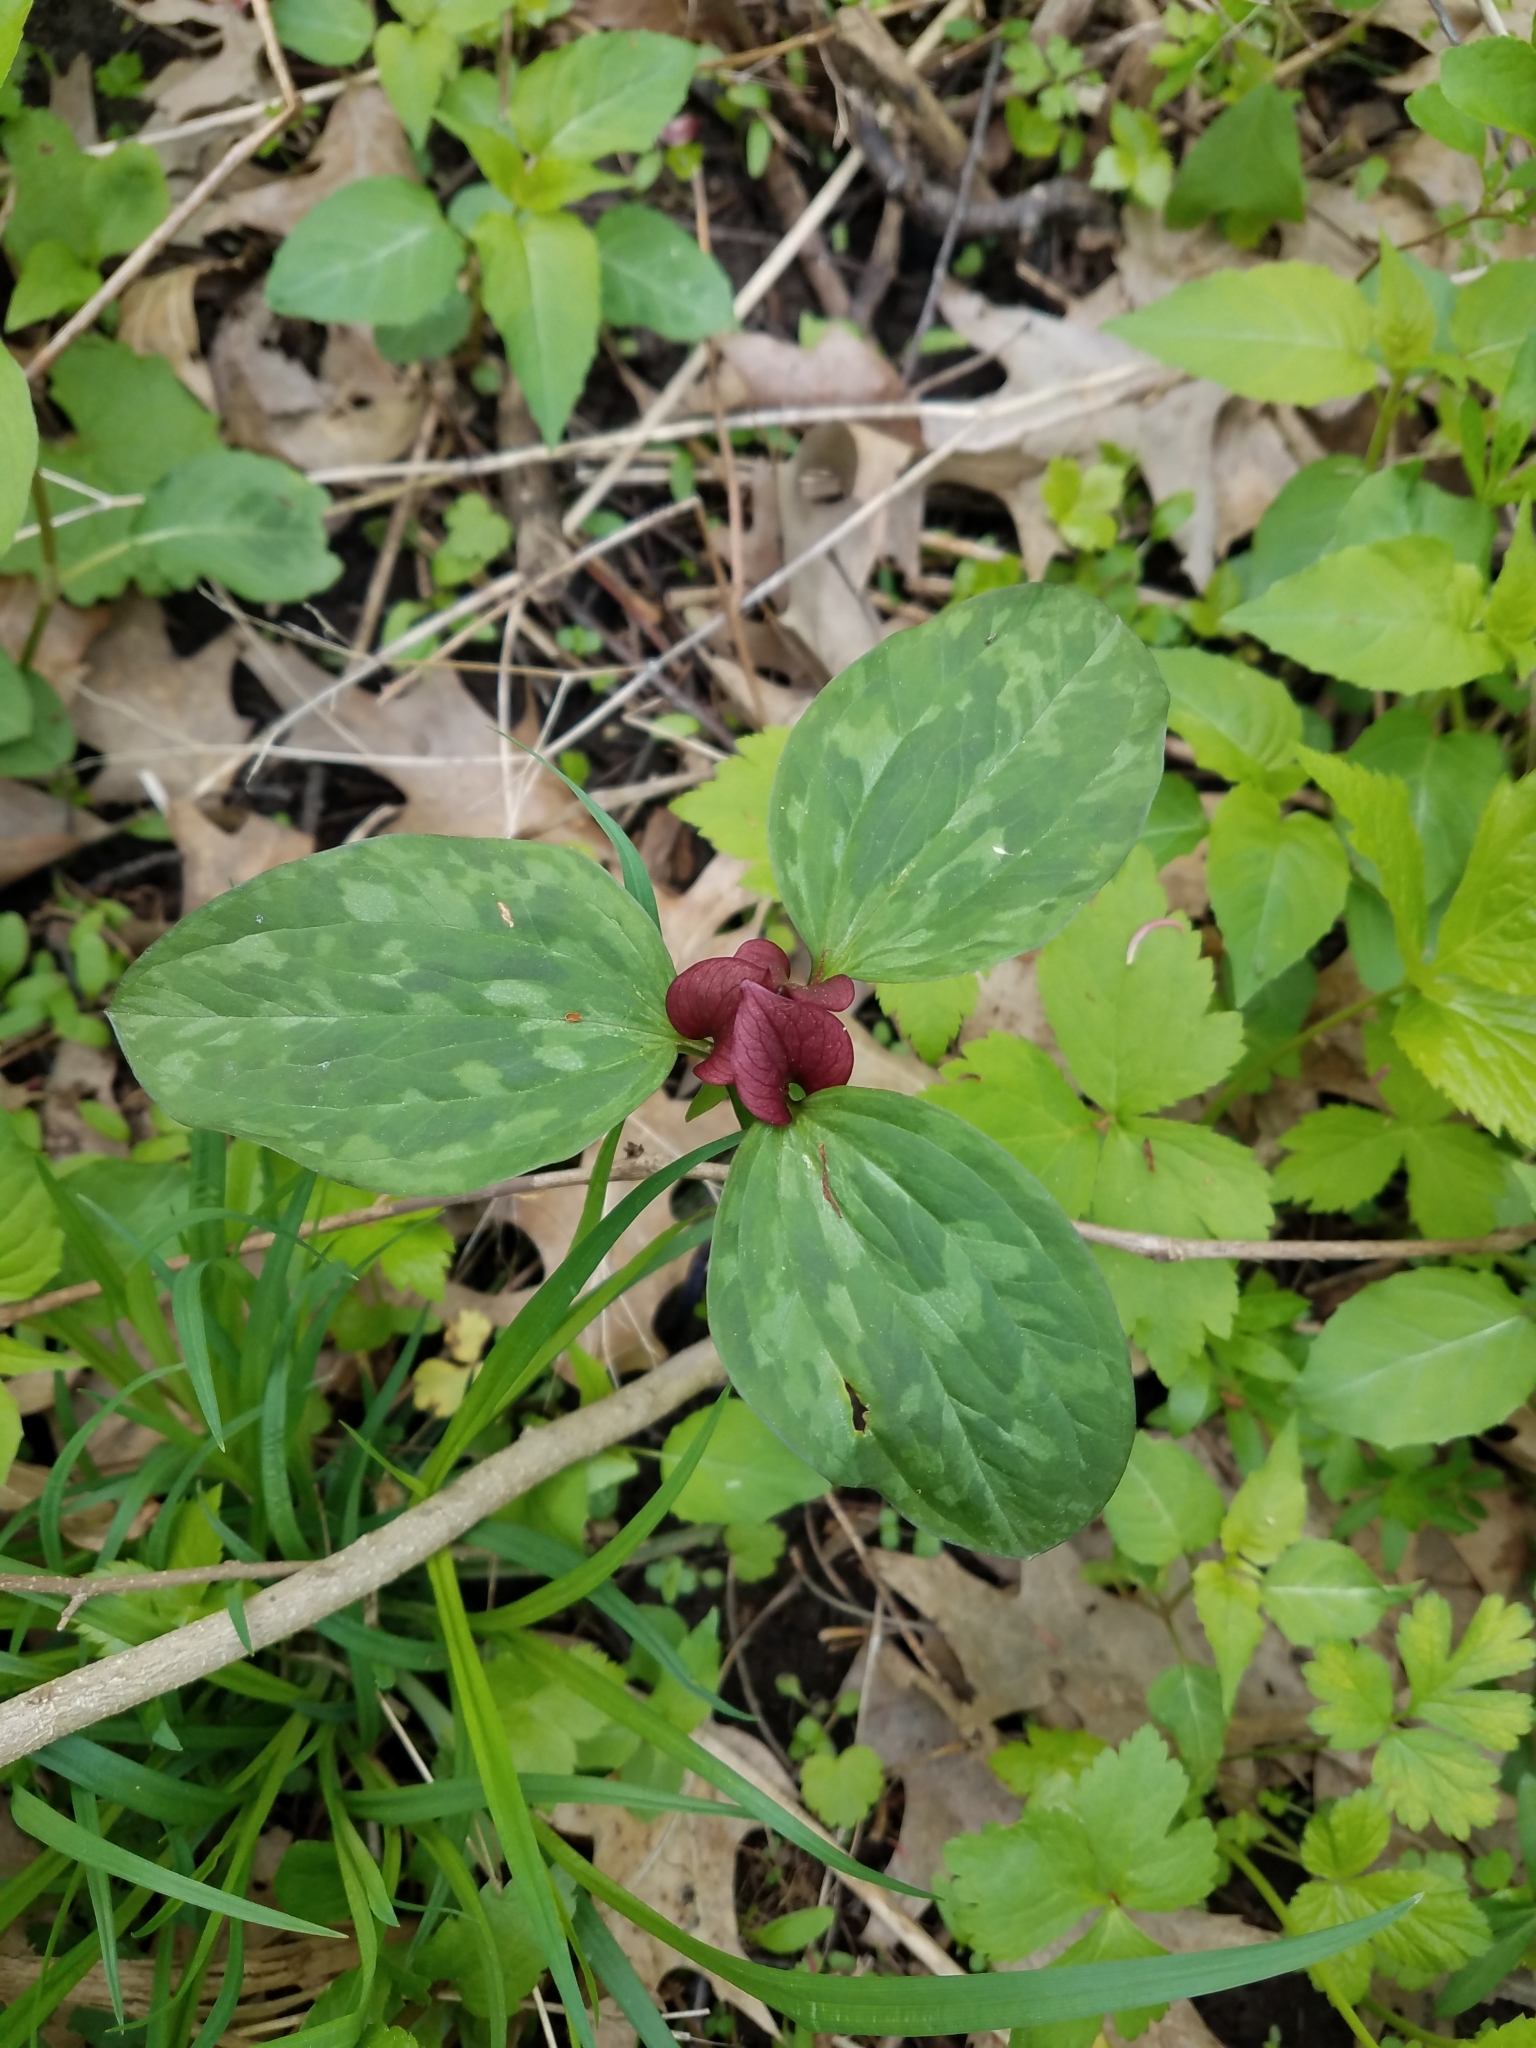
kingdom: Plantae
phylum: Tracheophyta
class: Liliopsida
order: Liliales
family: Melanthiaceae
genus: Trillium
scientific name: Trillium recurvatum
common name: Bloody butcher
